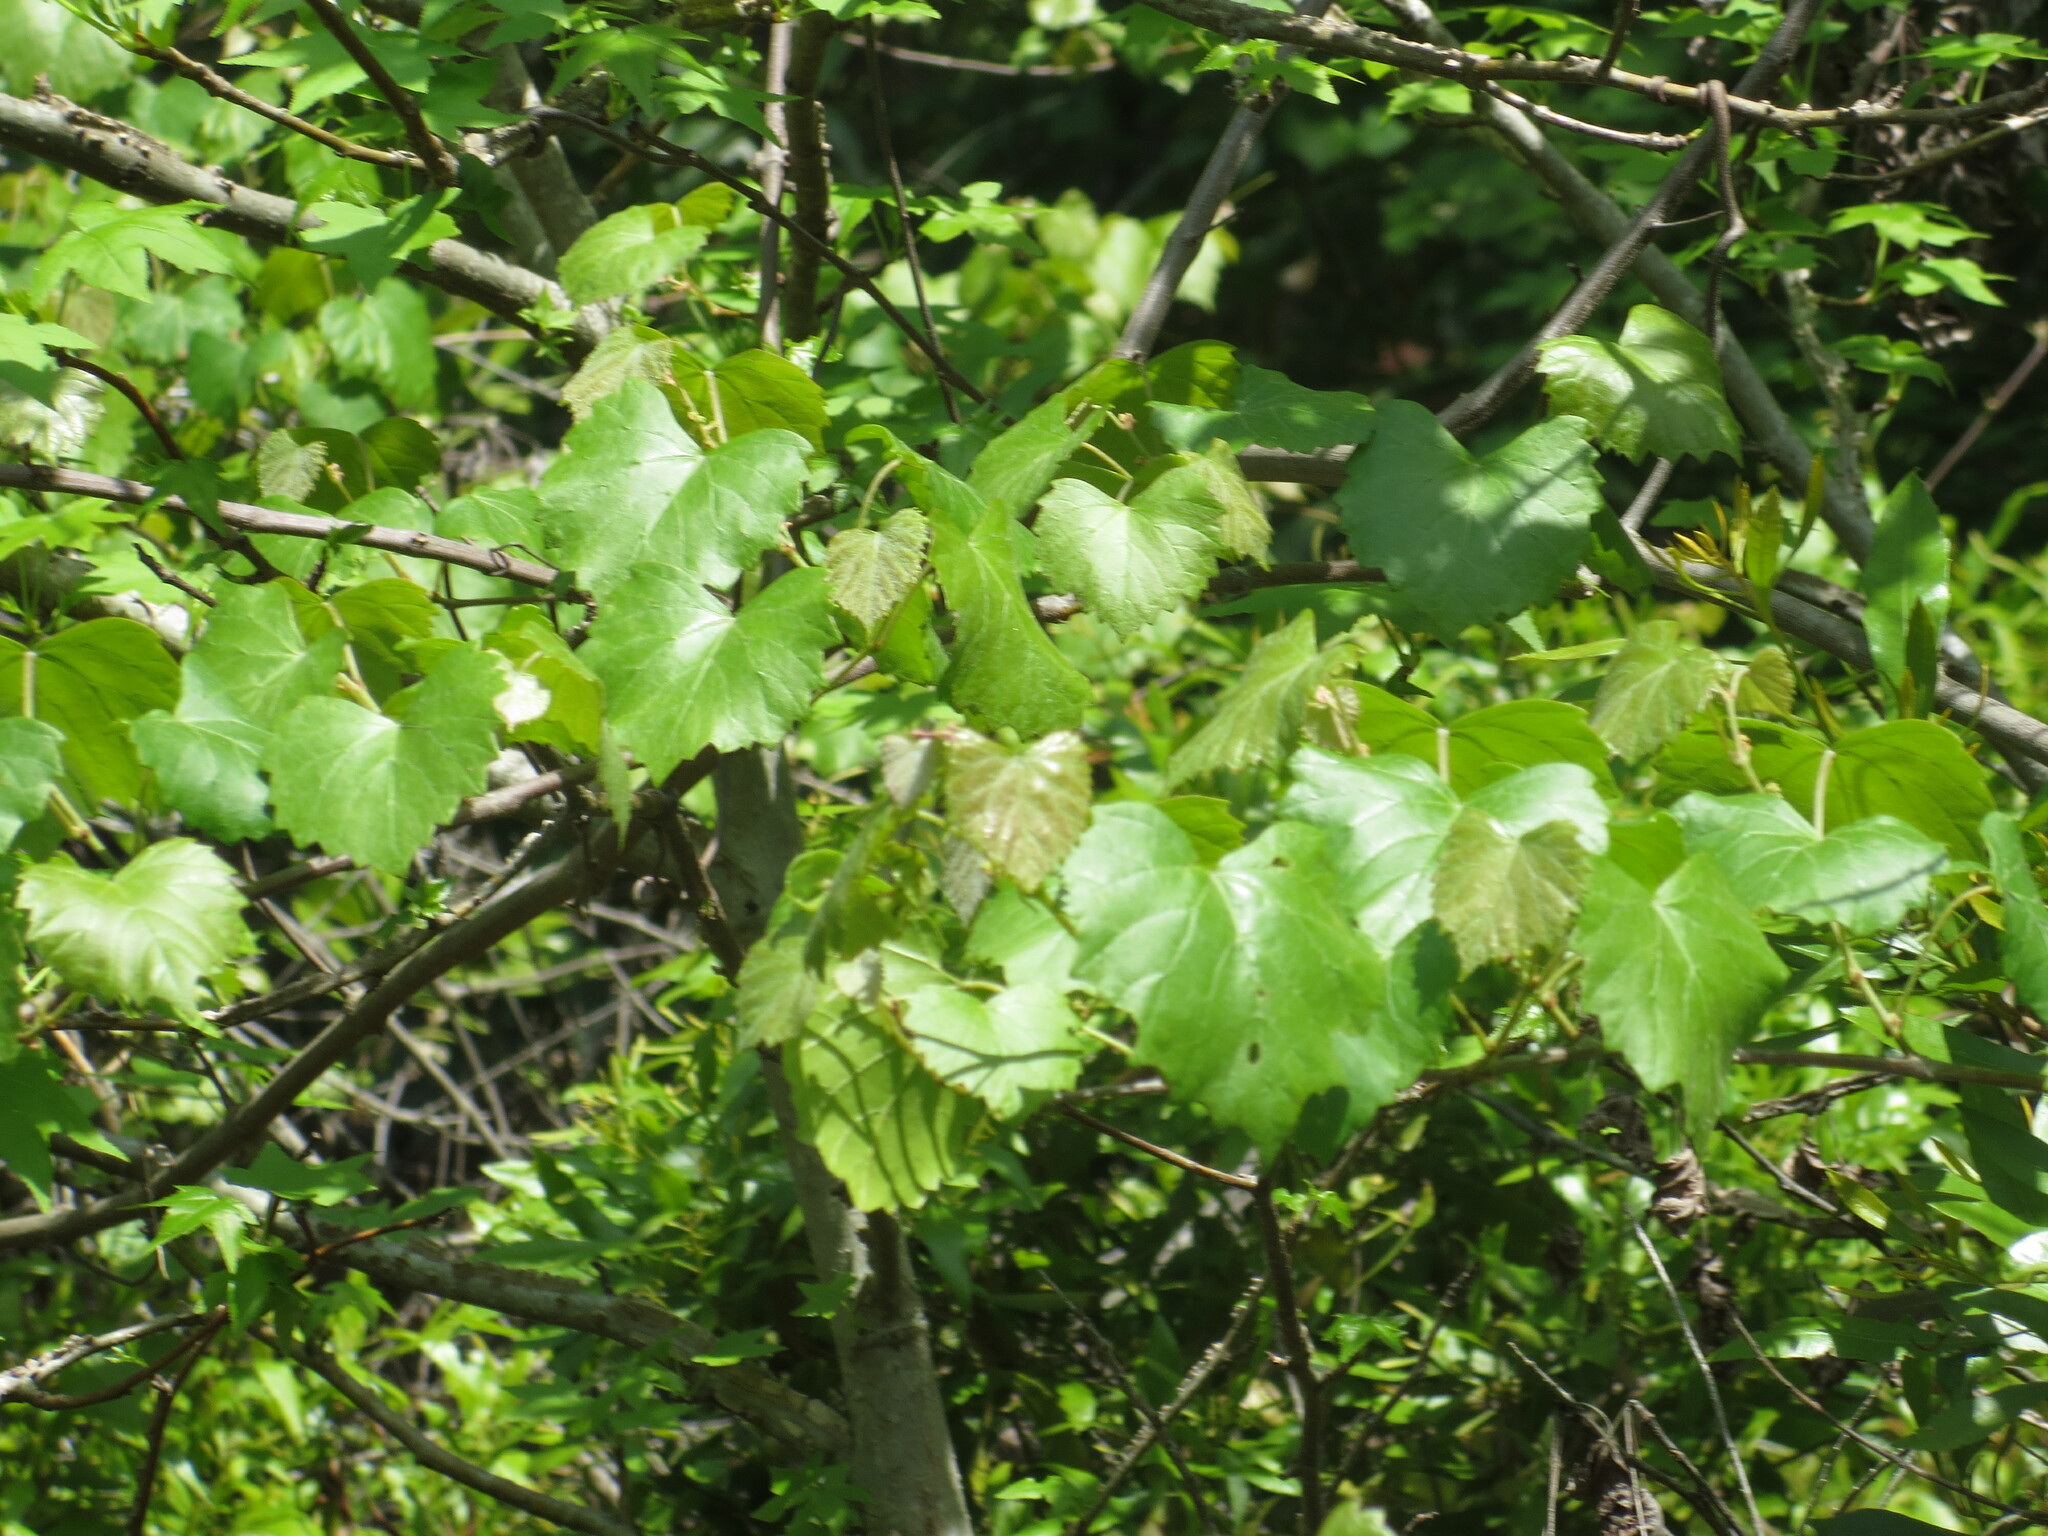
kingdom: Plantae
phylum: Tracheophyta
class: Magnoliopsida
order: Vitales
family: Vitaceae
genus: Vitis
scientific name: Vitis rotundifolia
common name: Muscadine grape
